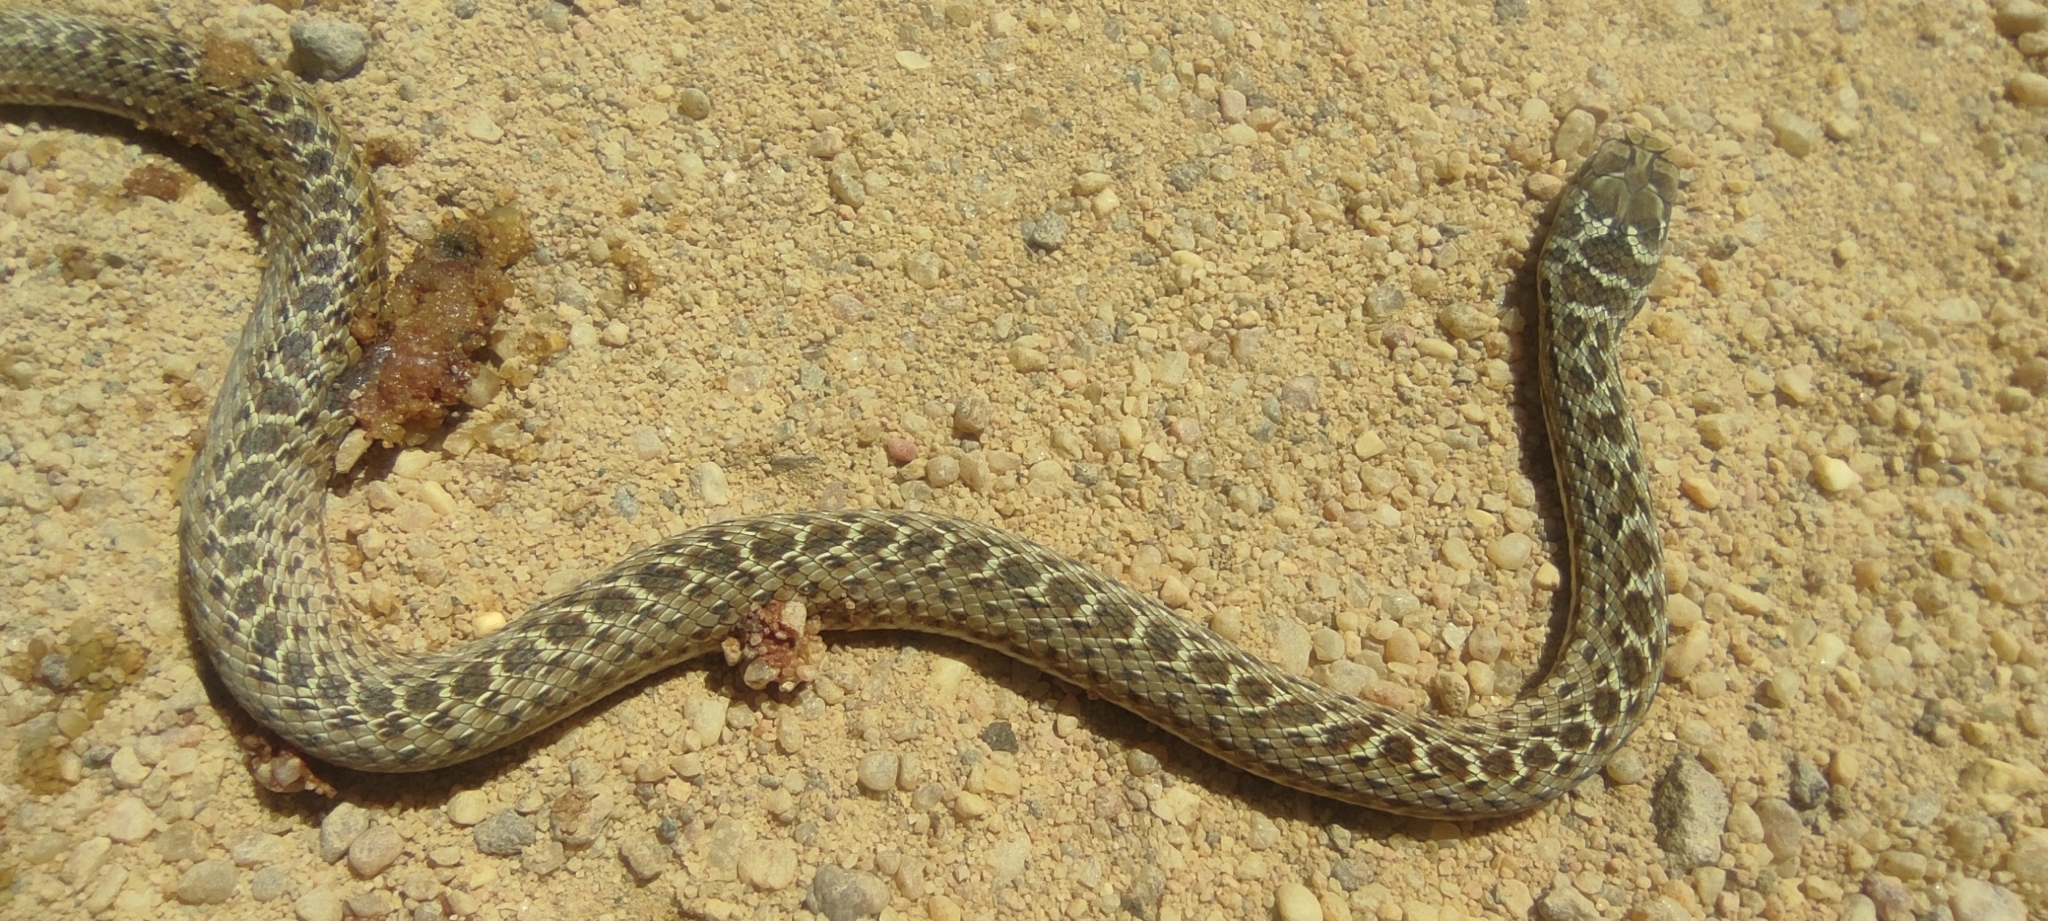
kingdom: Animalia
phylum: Chordata
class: Squamata
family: Psammophiidae
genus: Malpolon
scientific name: Malpolon monspessulanus
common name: Montpellier snake
